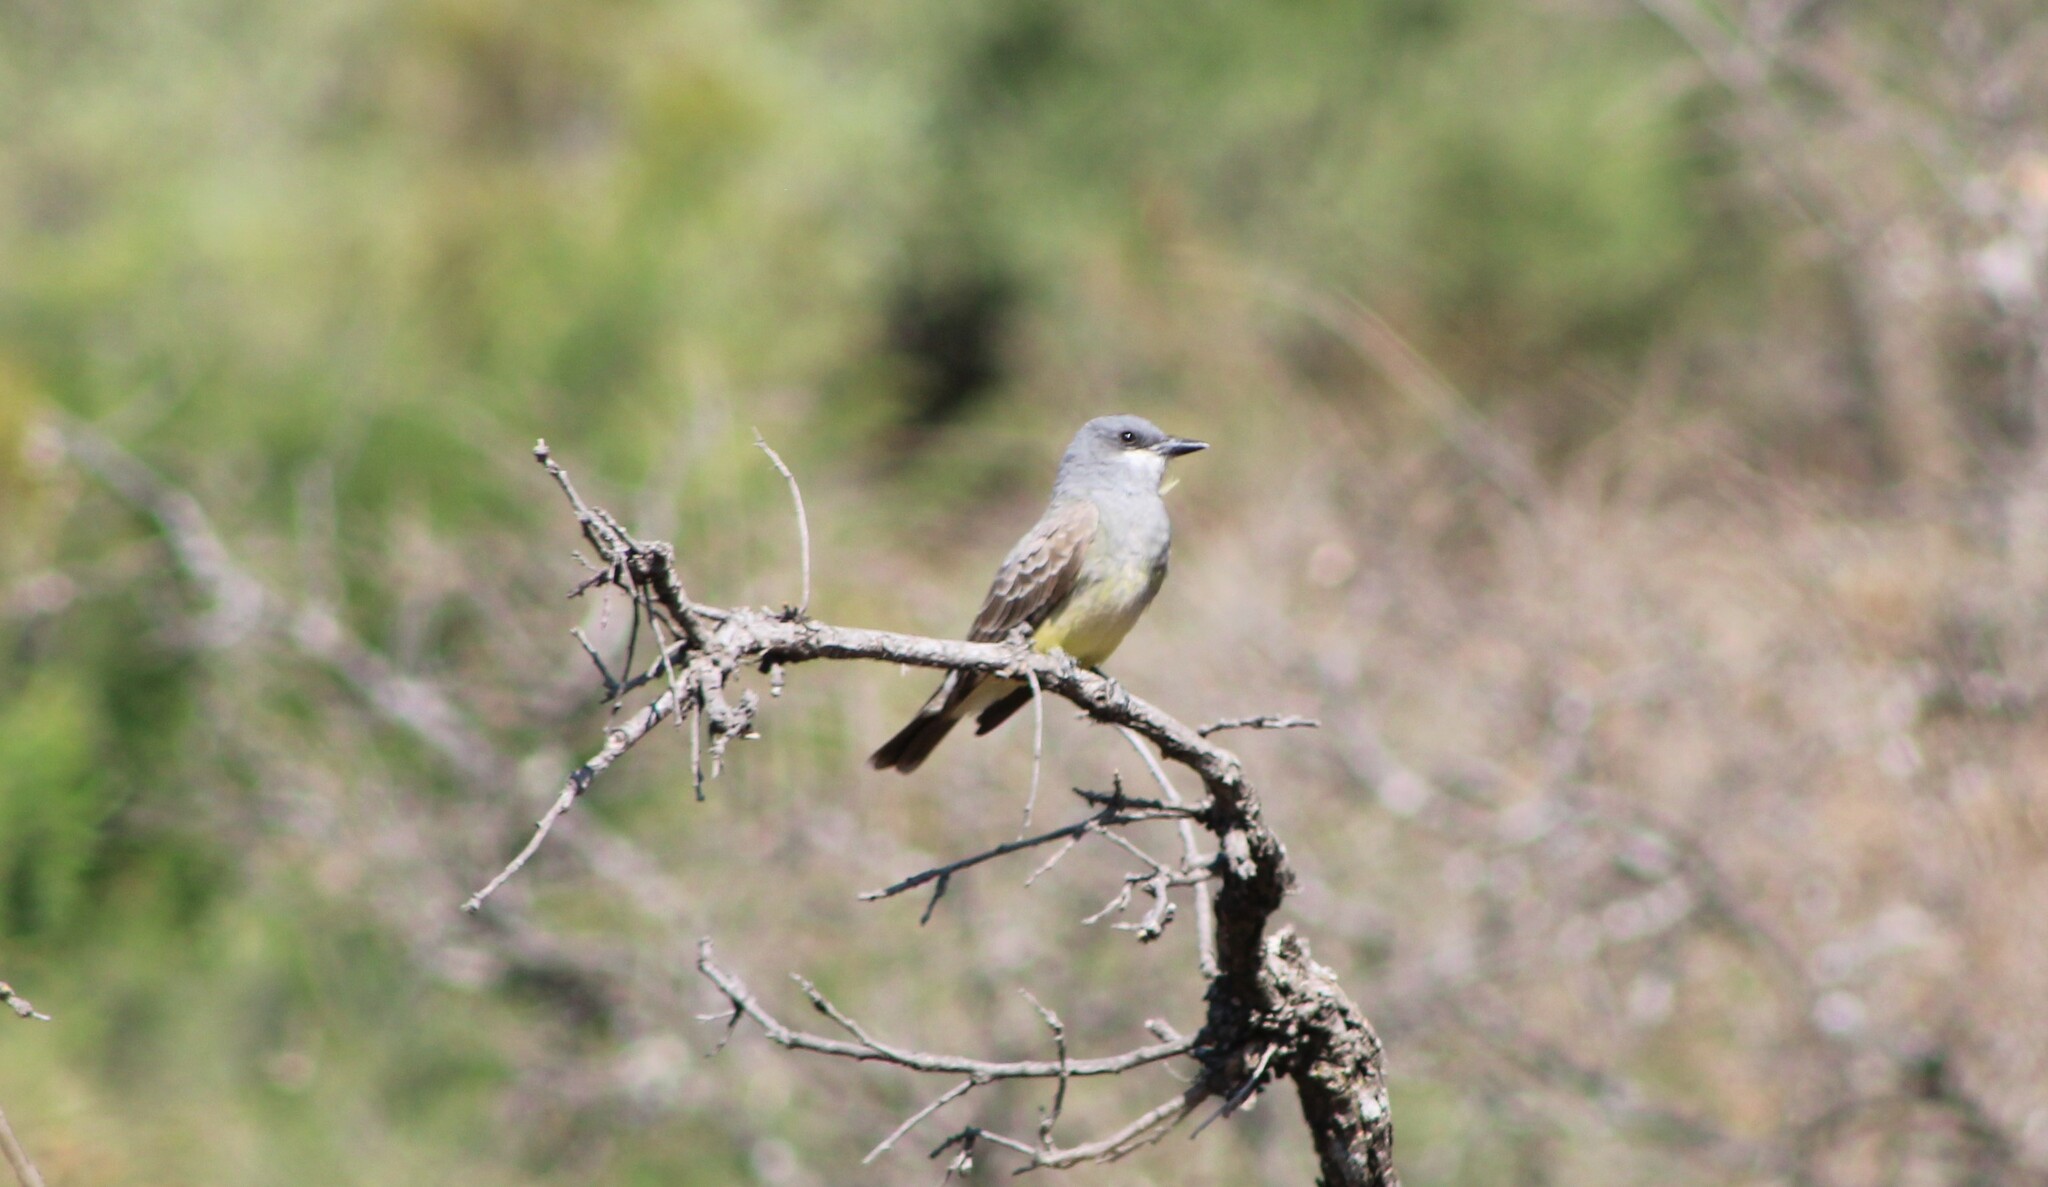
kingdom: Animalia
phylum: Chordata
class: Aves
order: Passeriformes
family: Tyrannidae
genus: Tyrannus
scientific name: Tyrannus vociferans
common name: Cassin's kingbird
